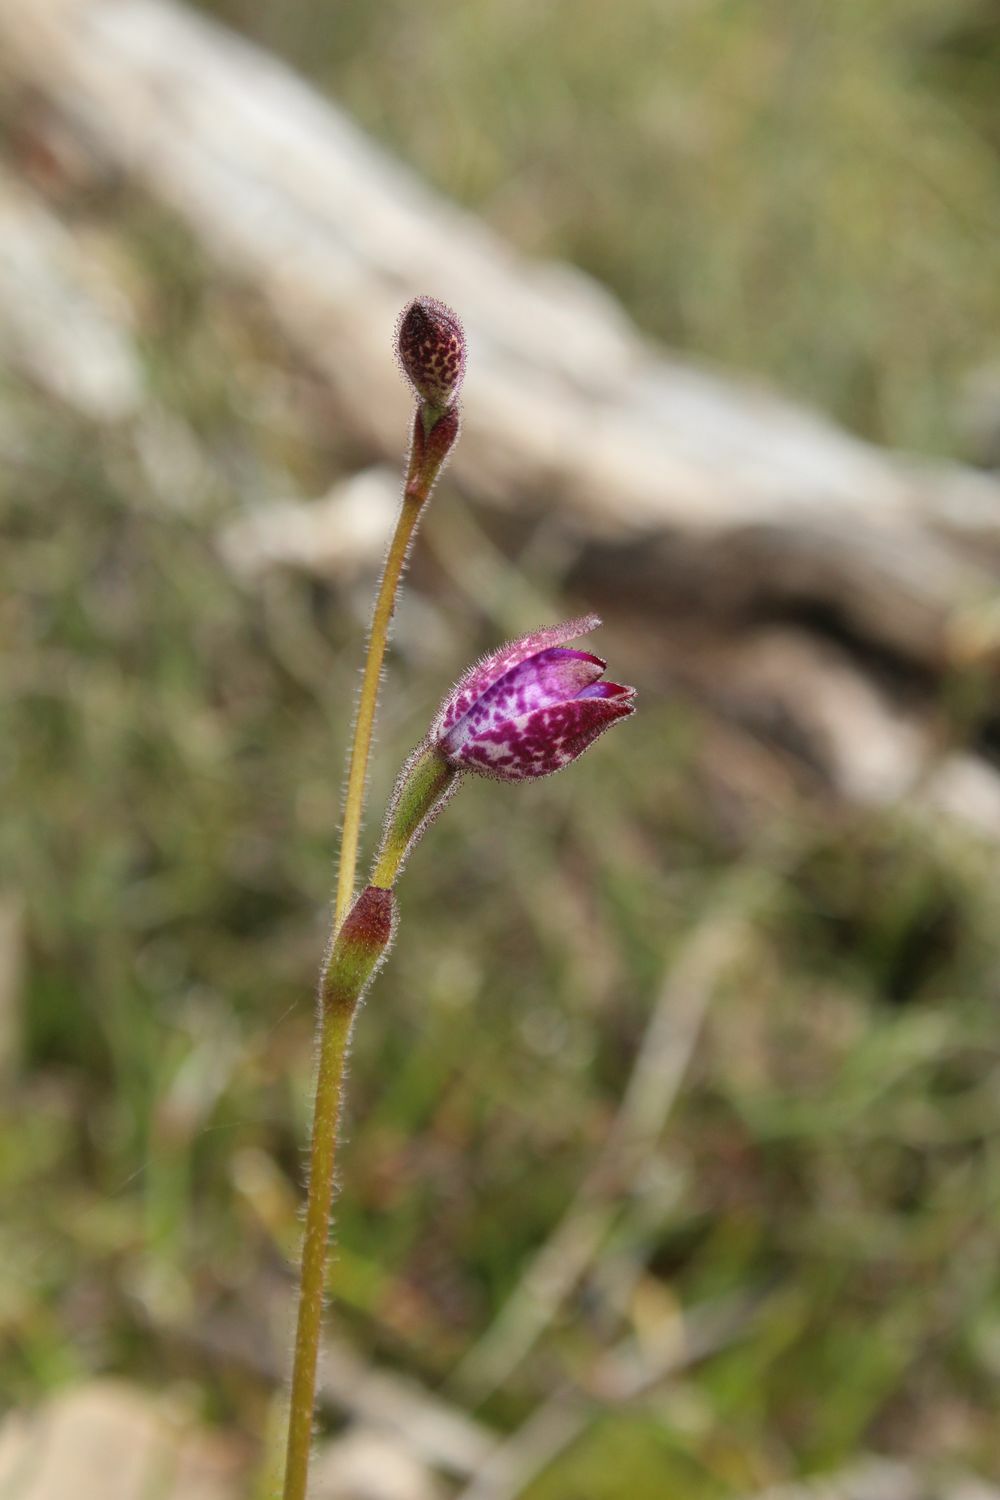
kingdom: Plantae
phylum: Tracheophyta
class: Liliopsida
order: Asparagales
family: Orchidaceae
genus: Caladenia
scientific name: Caladenia brunonis
